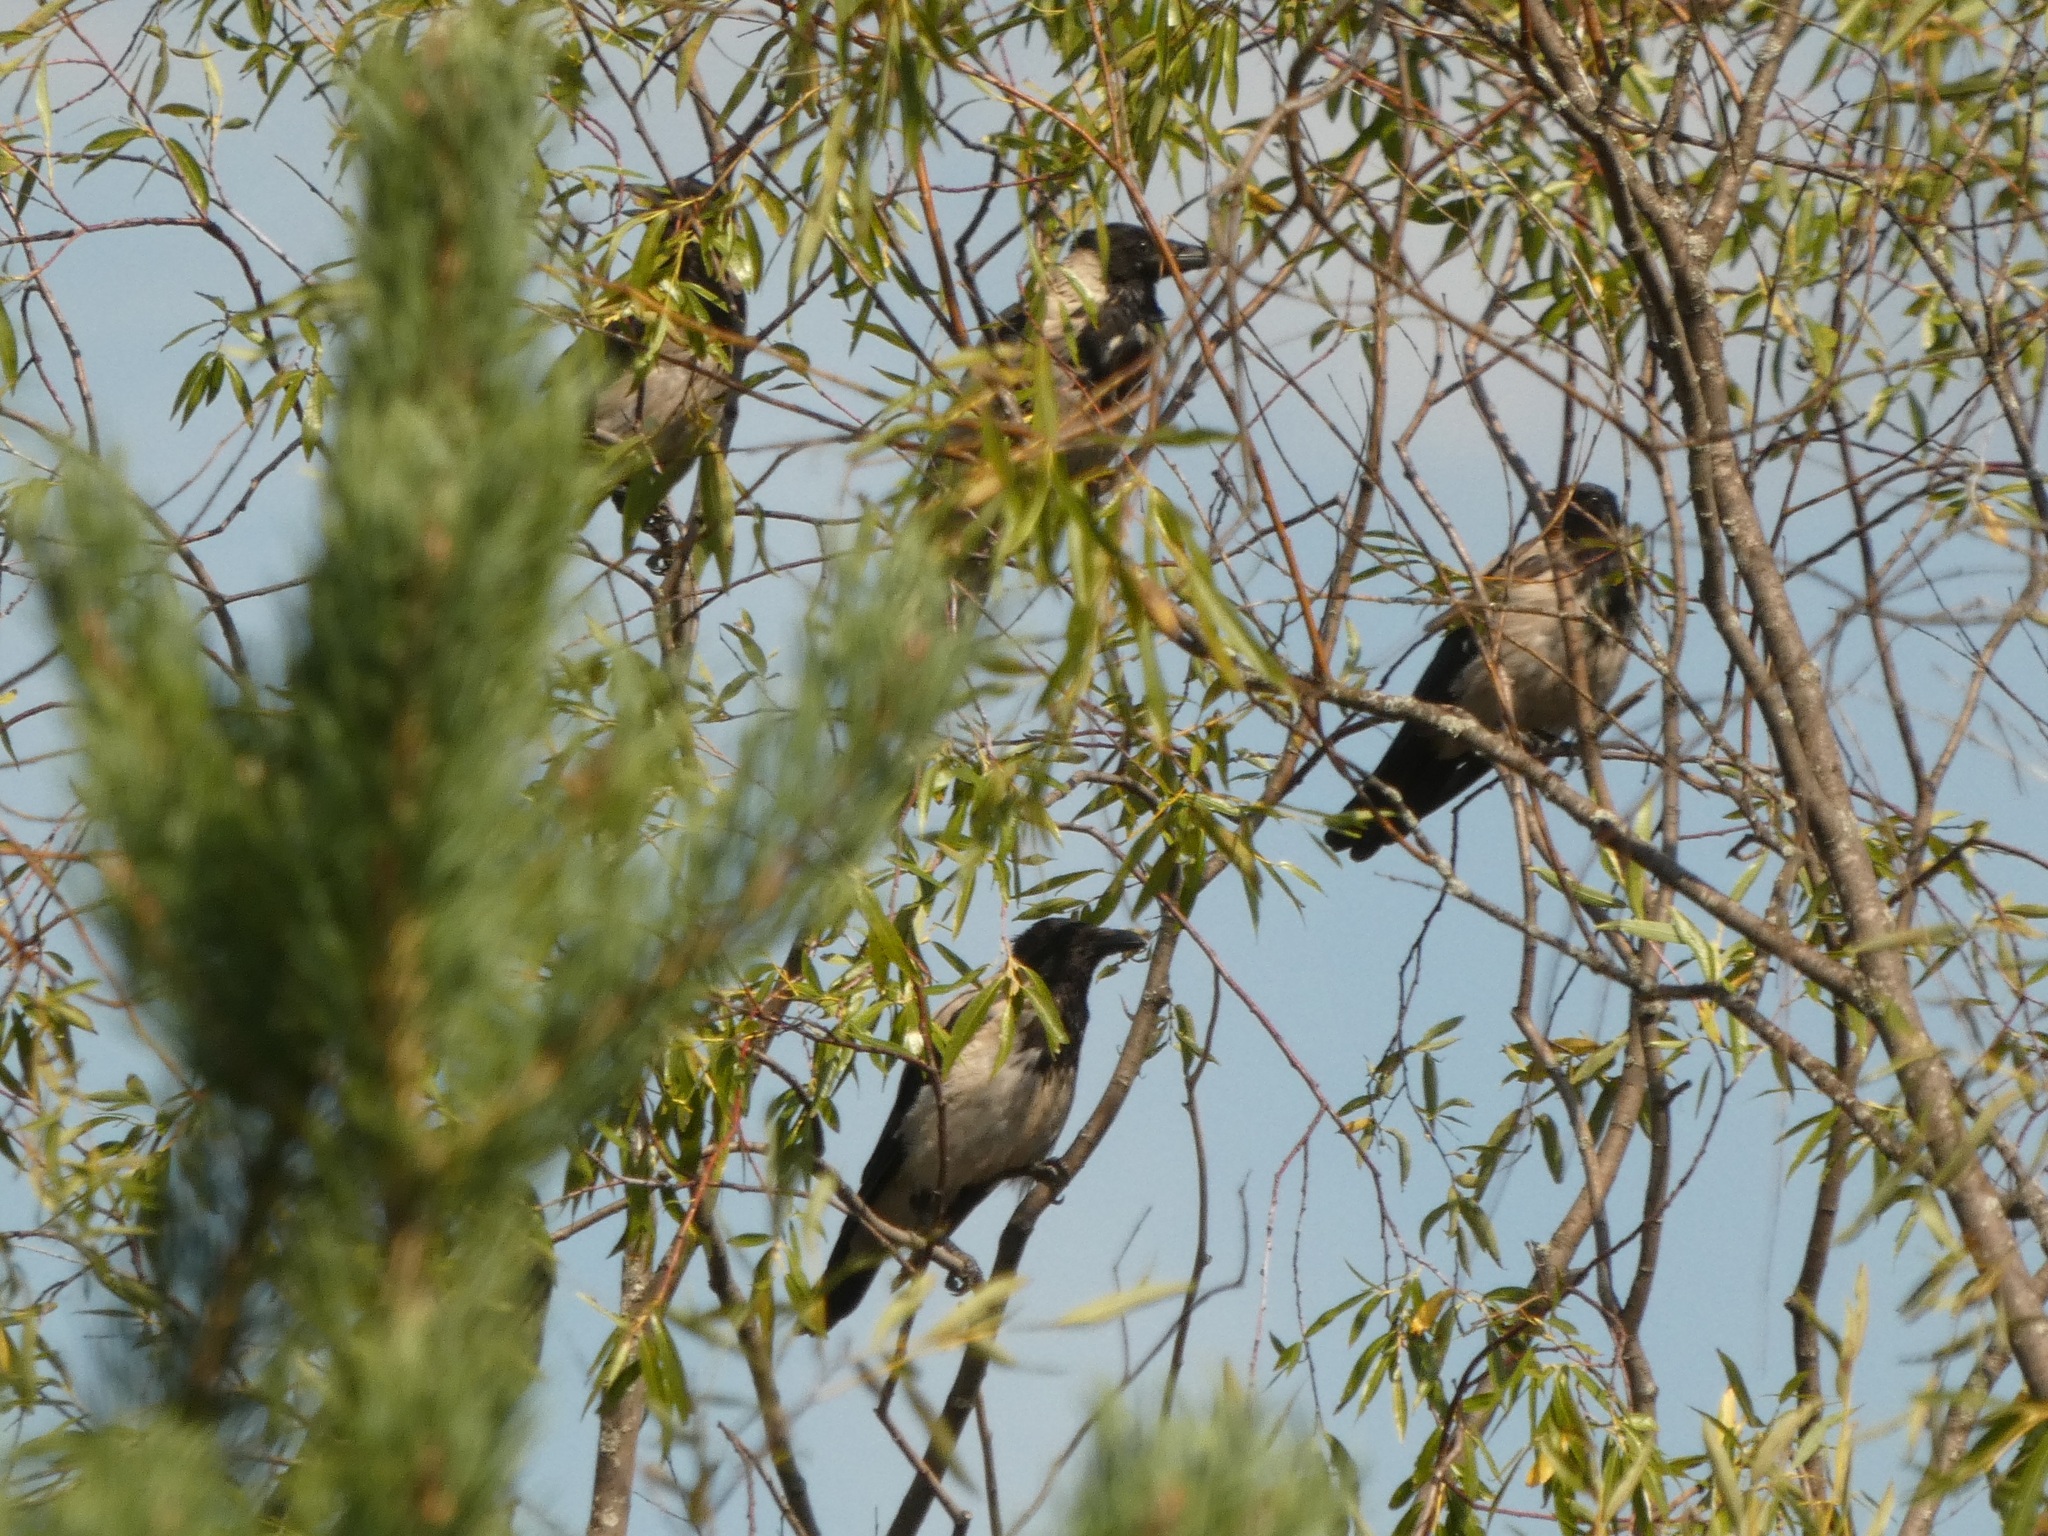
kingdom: Animalia
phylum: Chordata
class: Aves
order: Passeriformes
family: Corvidae
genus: Corvus
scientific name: Corvus cornix
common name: Hooded crow
